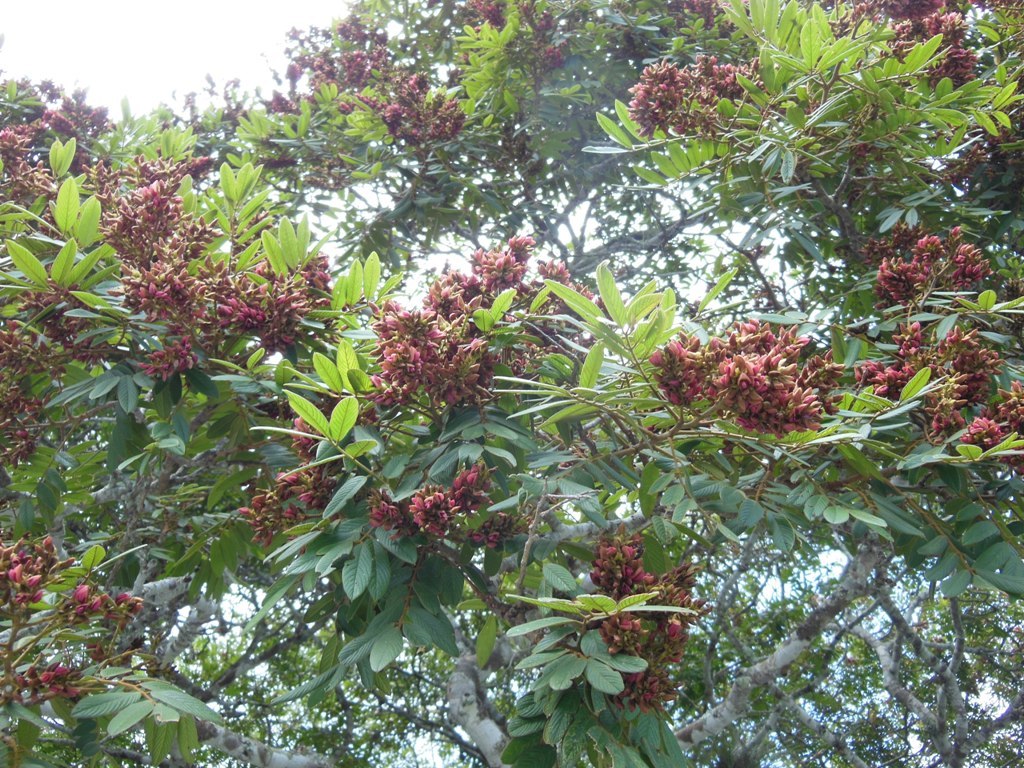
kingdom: Plantae
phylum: Tracheophyta
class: Magnoliopsida
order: Fabales
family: Fabaceae
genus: Lonchocarpus
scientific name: Lonchocarpus rugosus
